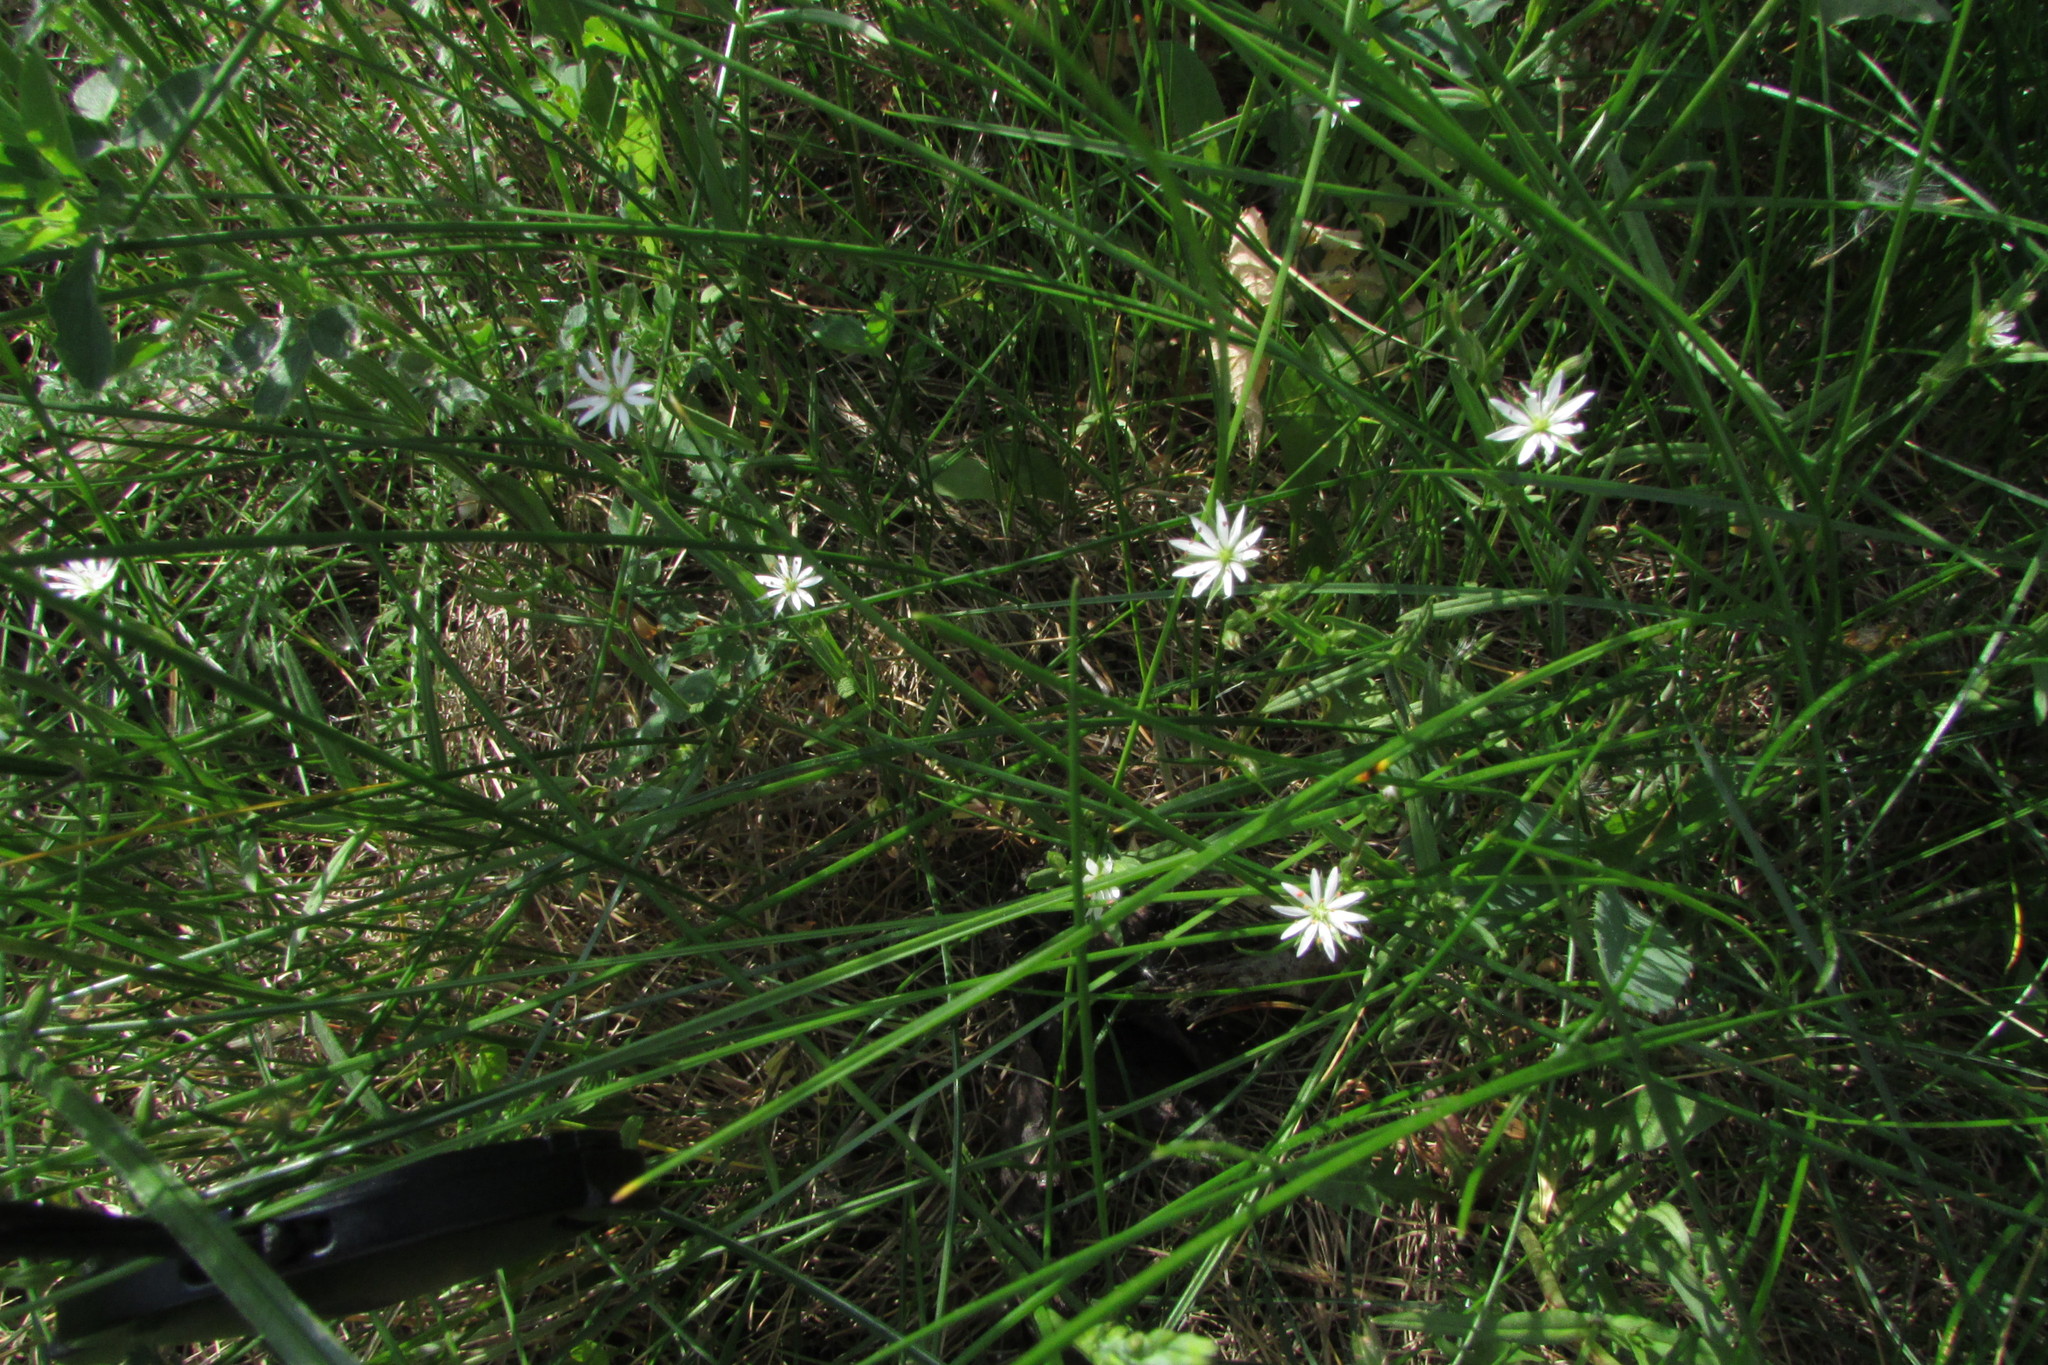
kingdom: Plantae
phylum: Tracheophyta
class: Magnoliopsida
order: Caryophyllales
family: Caryophyllaceae
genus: Stellaria
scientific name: Stellaria graminea
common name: Grass-like starwort
